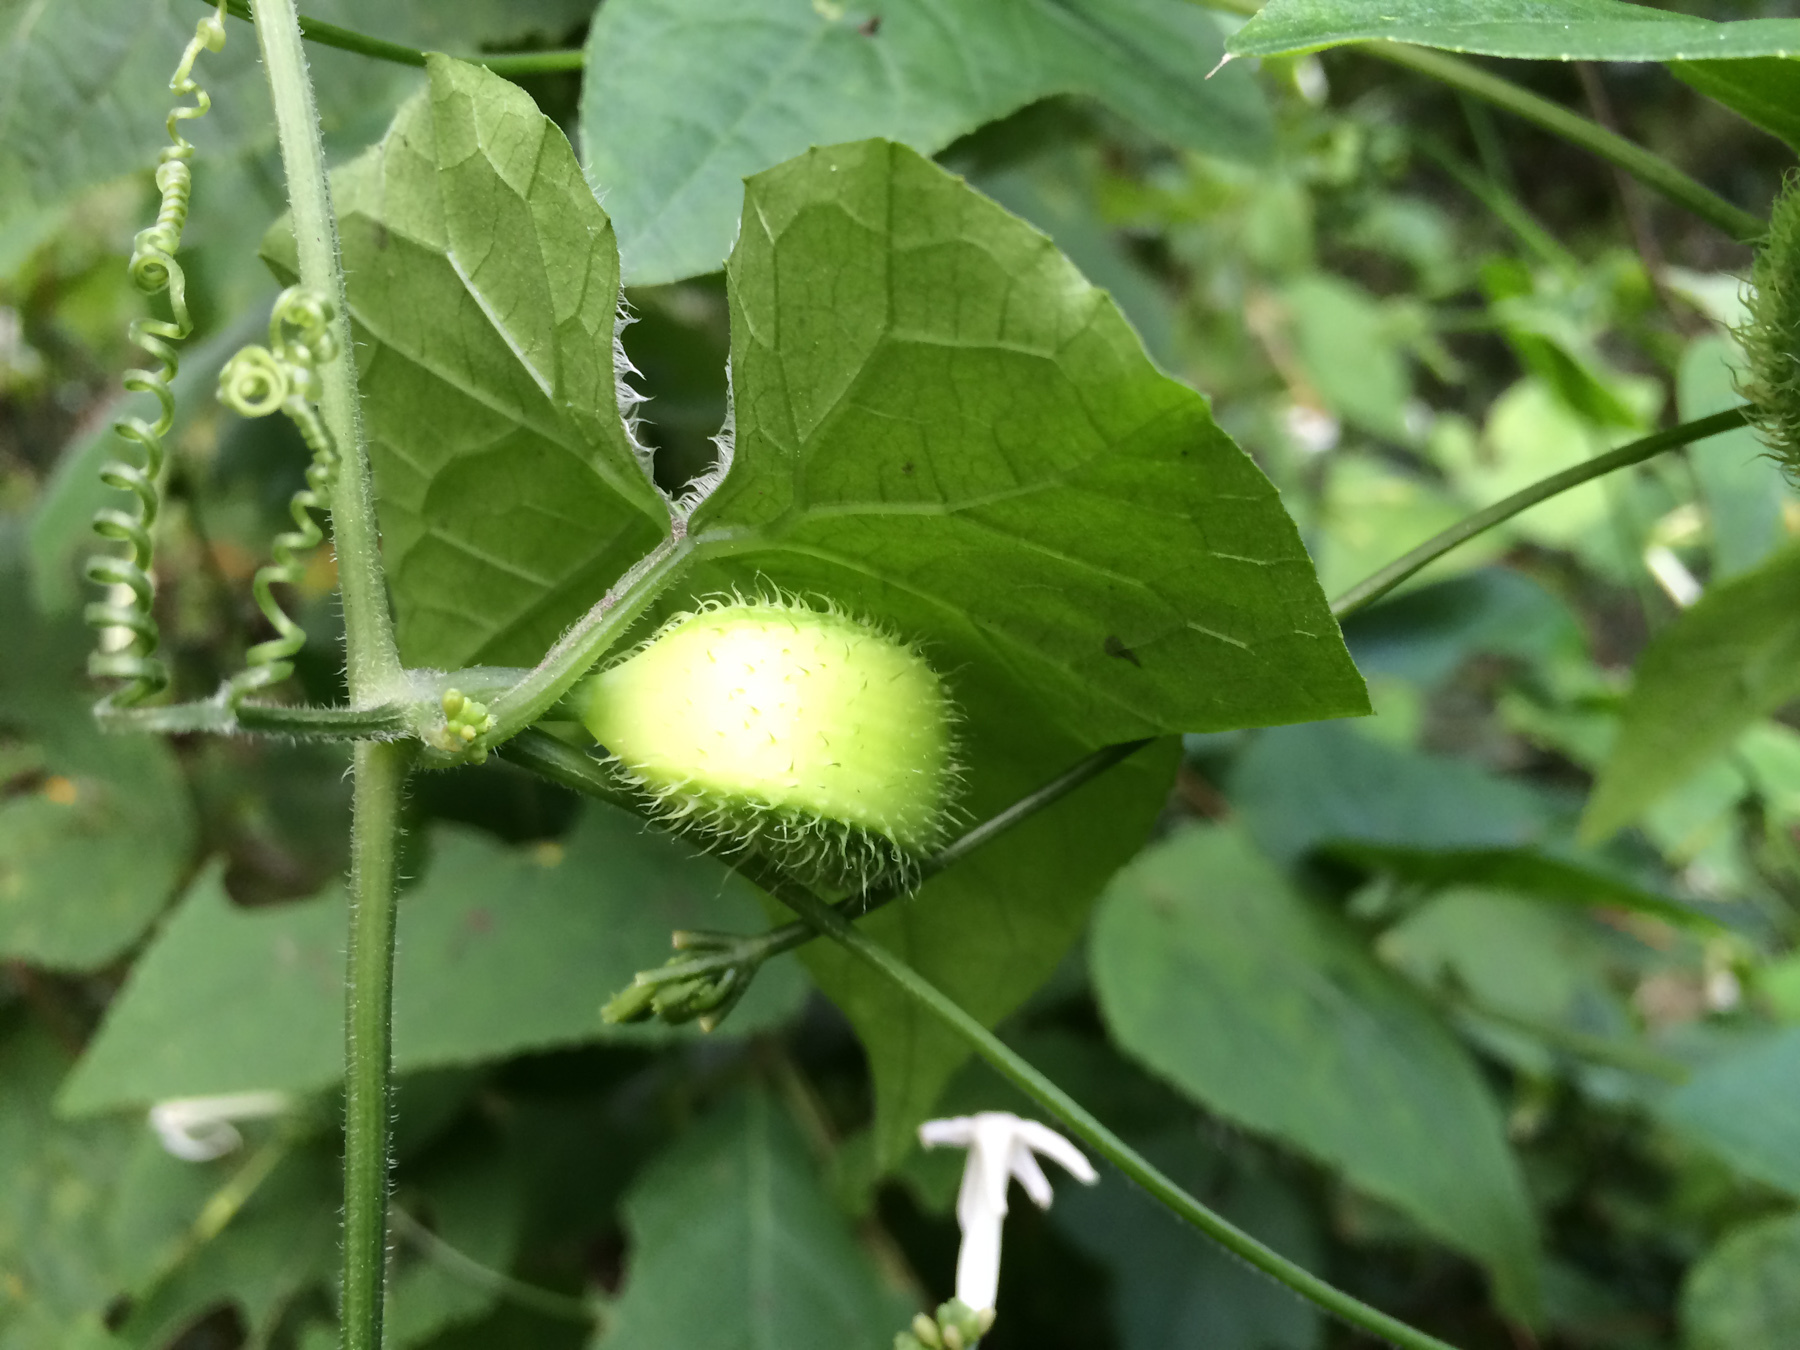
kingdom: Plantae
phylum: Tracheophyta
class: Magnoliopsida
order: Cucurbitales
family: Cucurbitaceae
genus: Cyclanthera
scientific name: Cyclanthera carthagenensis
